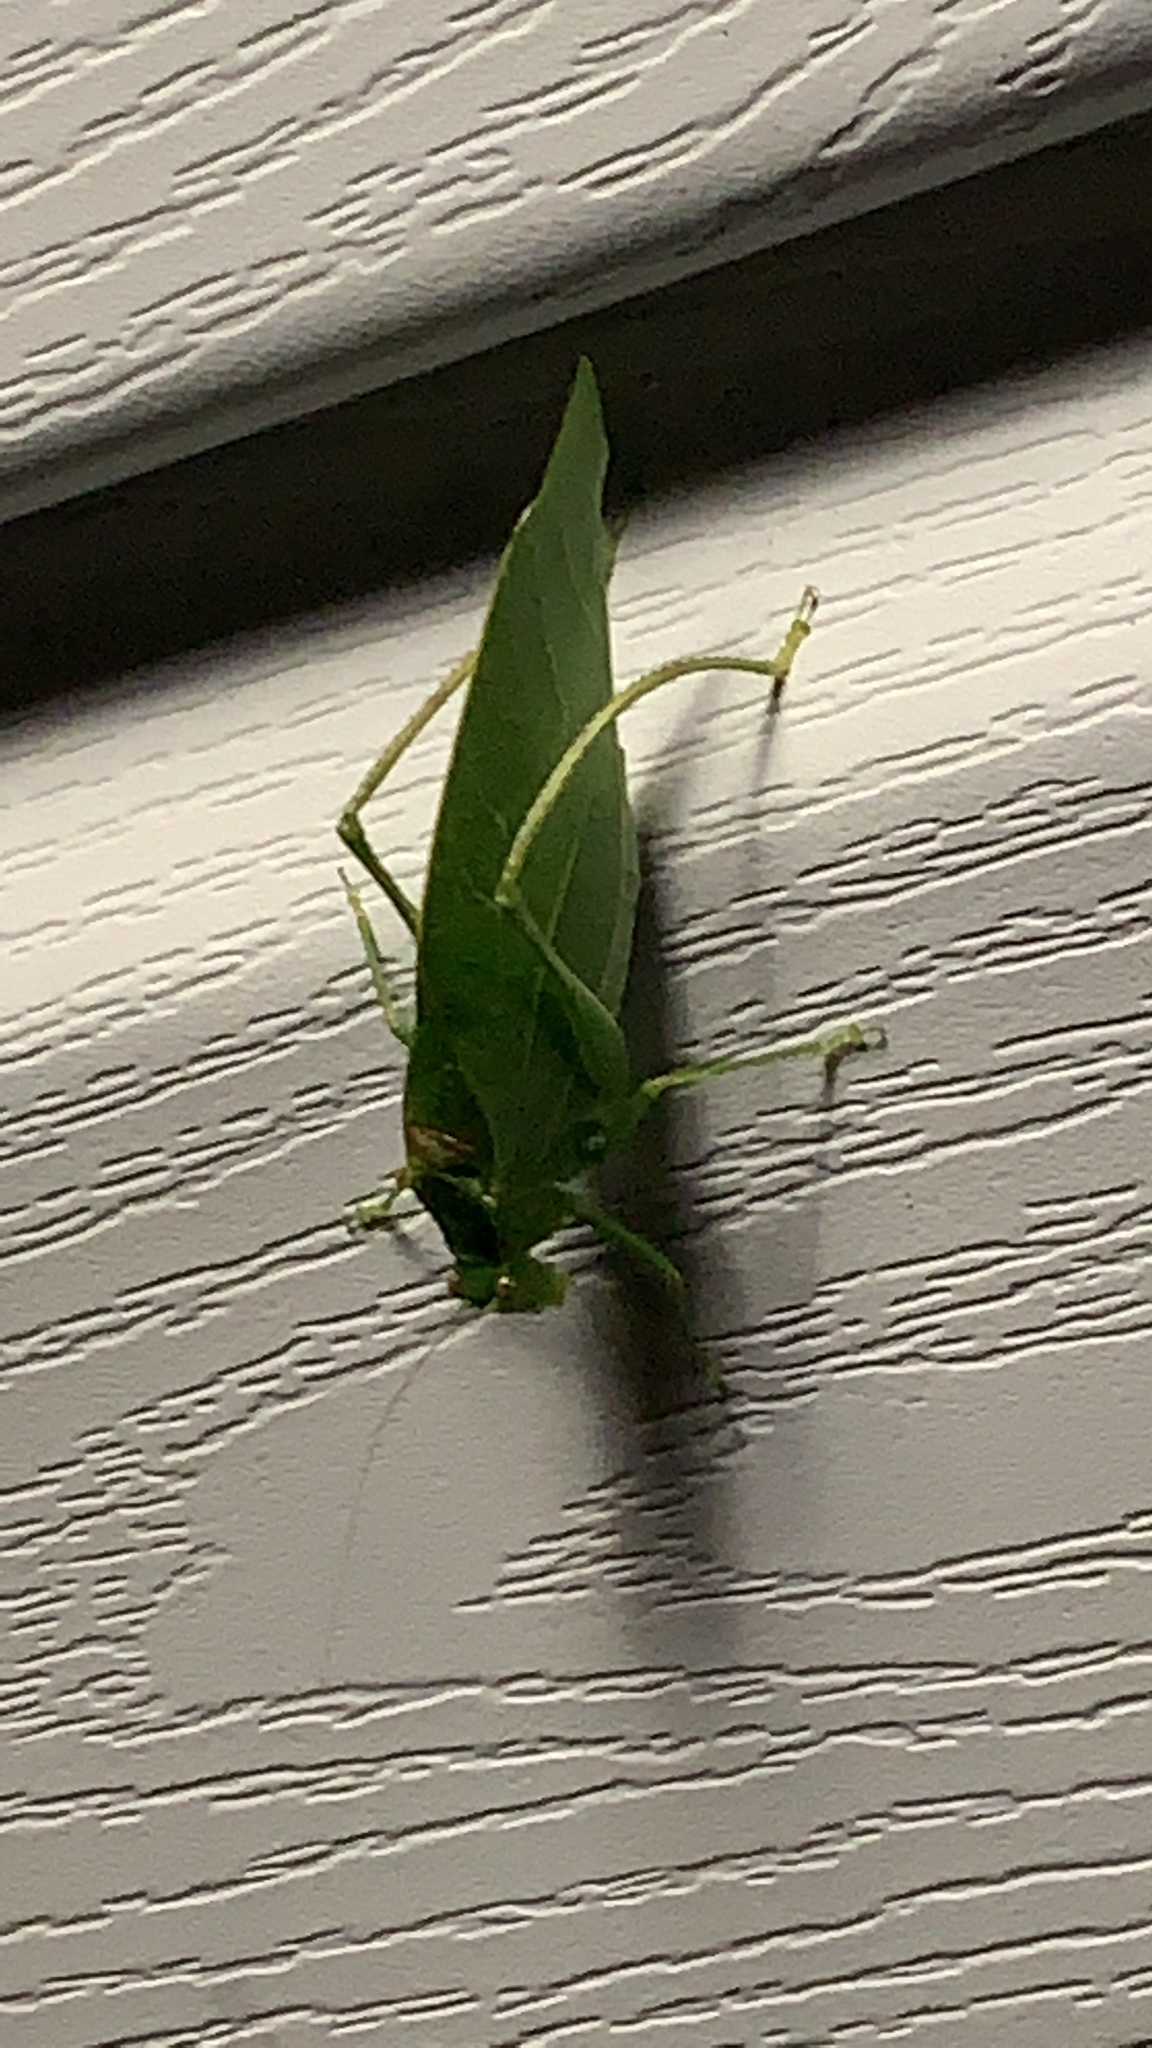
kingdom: Animalia
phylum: Arthropoda
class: Insecta
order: Orthoptera
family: Tettigoniidae
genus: Microcentrum
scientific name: Microcentrum retinerve
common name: Angular-winged katydid
